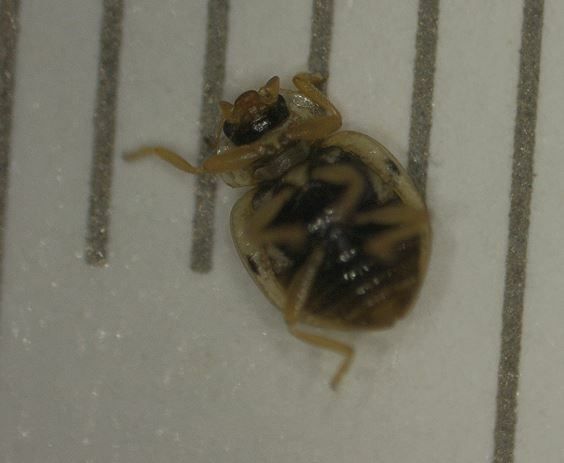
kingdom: Animalia
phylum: Arthropoda
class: Insecta
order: Coleoptera
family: Coccinellidae
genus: Psyllobora
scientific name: Psyllobora vigintimaculata
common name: Ladybird beetle
